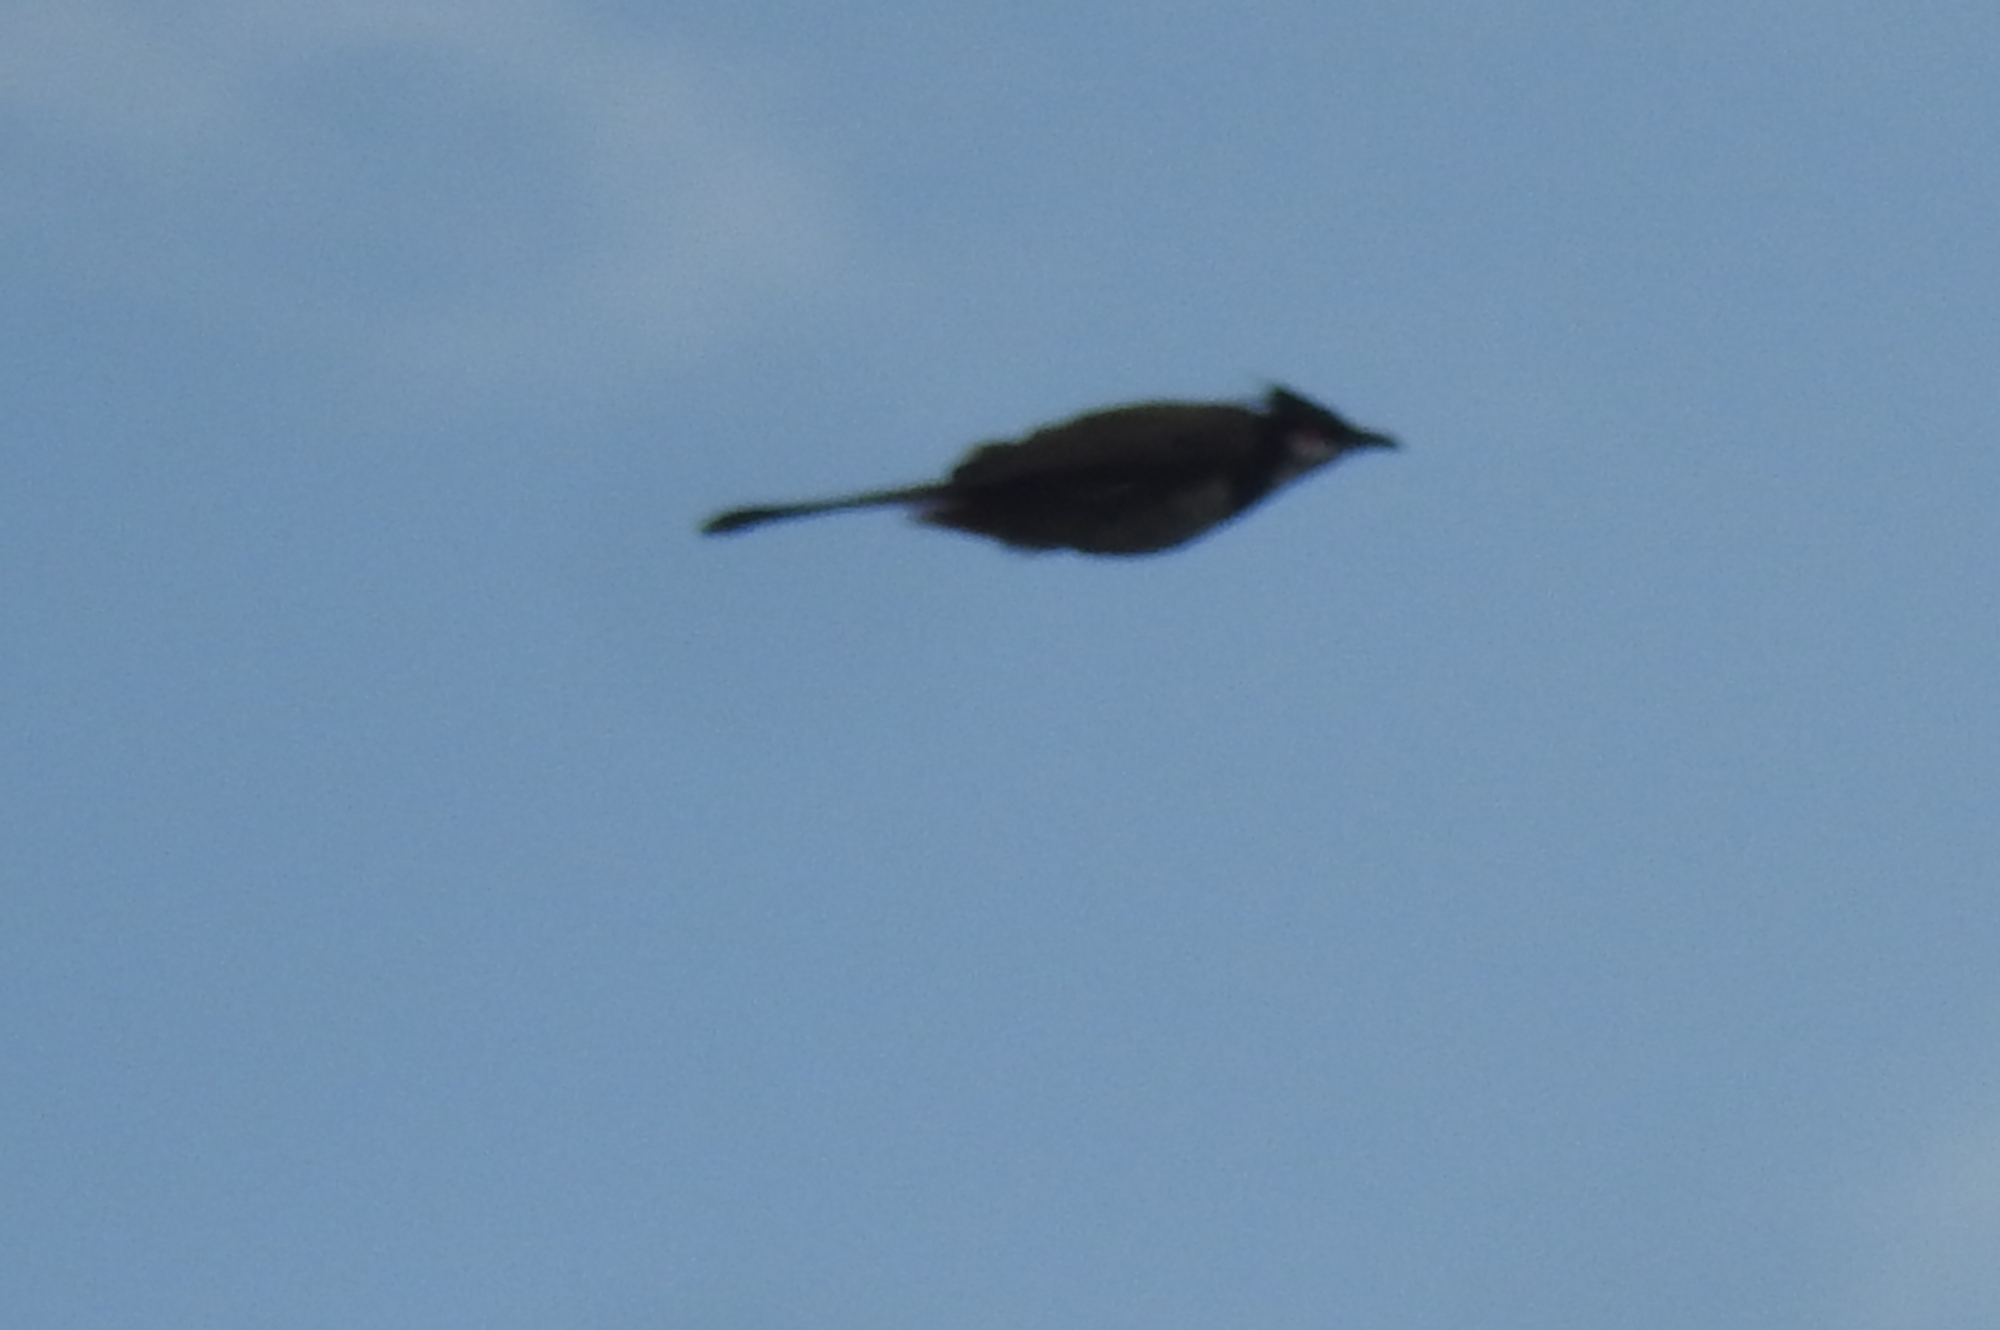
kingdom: Animalia
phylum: Chordata
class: Aves
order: Passeriformes
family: Pycnonotidae
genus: Pycnonotus
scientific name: Pycnonotus jocosus
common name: Red-whiskered bulbul
